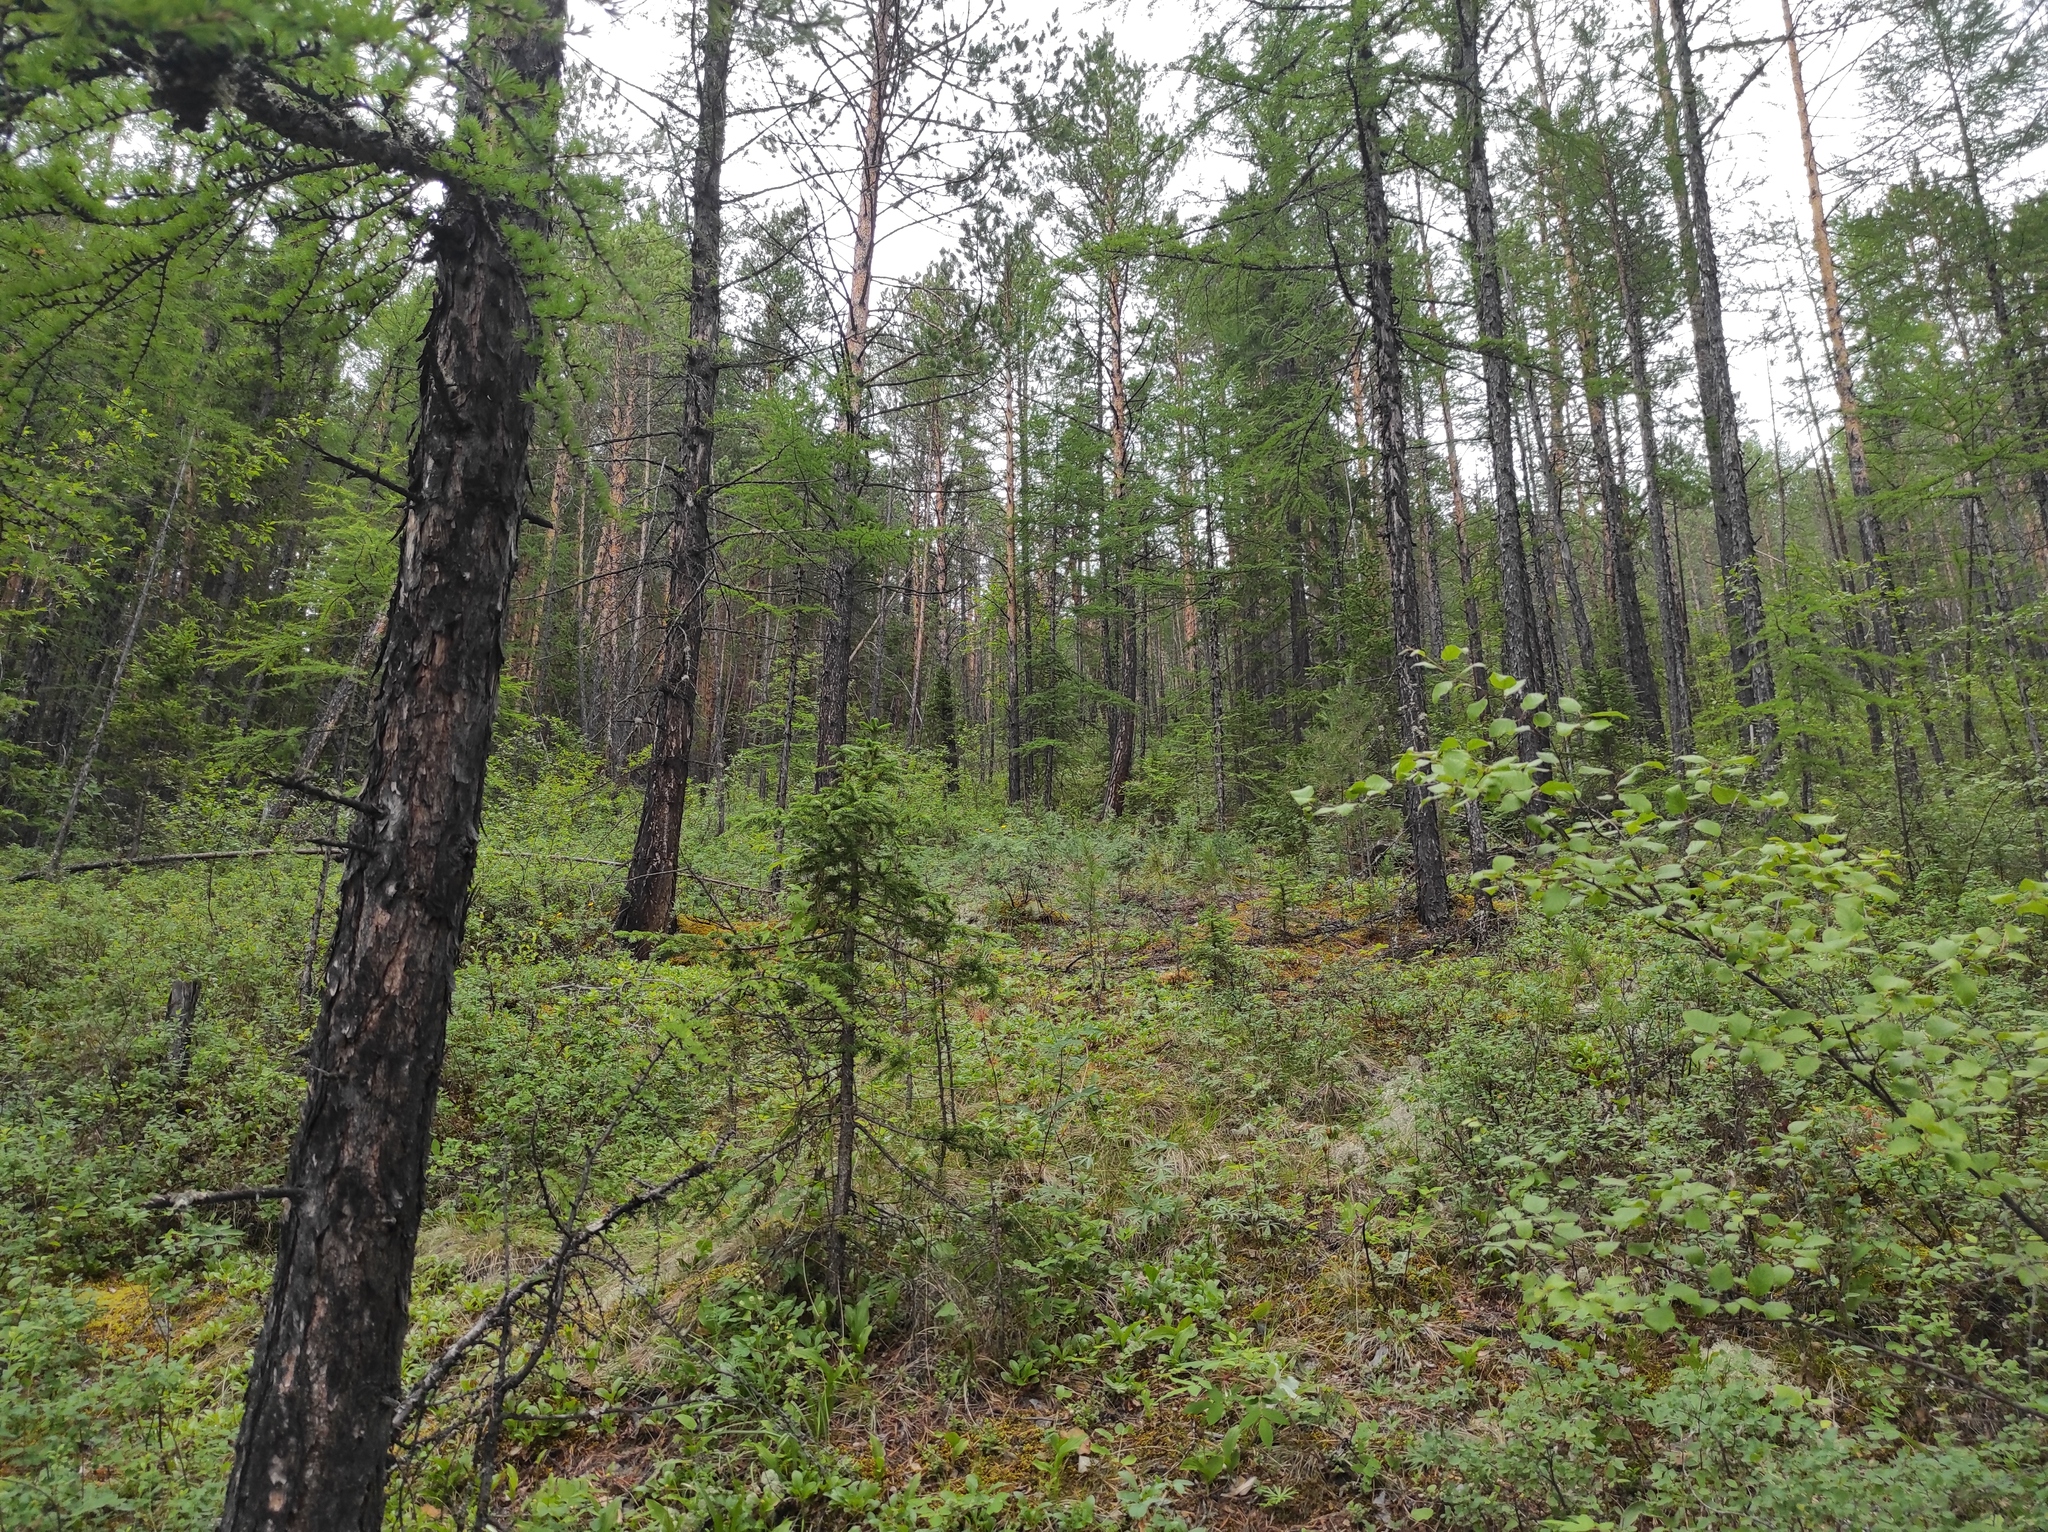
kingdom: Plantae
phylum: Tracheophyta
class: Pinopsida
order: Pinales
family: Pinaceae
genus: Picea
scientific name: Picea obovata
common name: Siberian spruce
